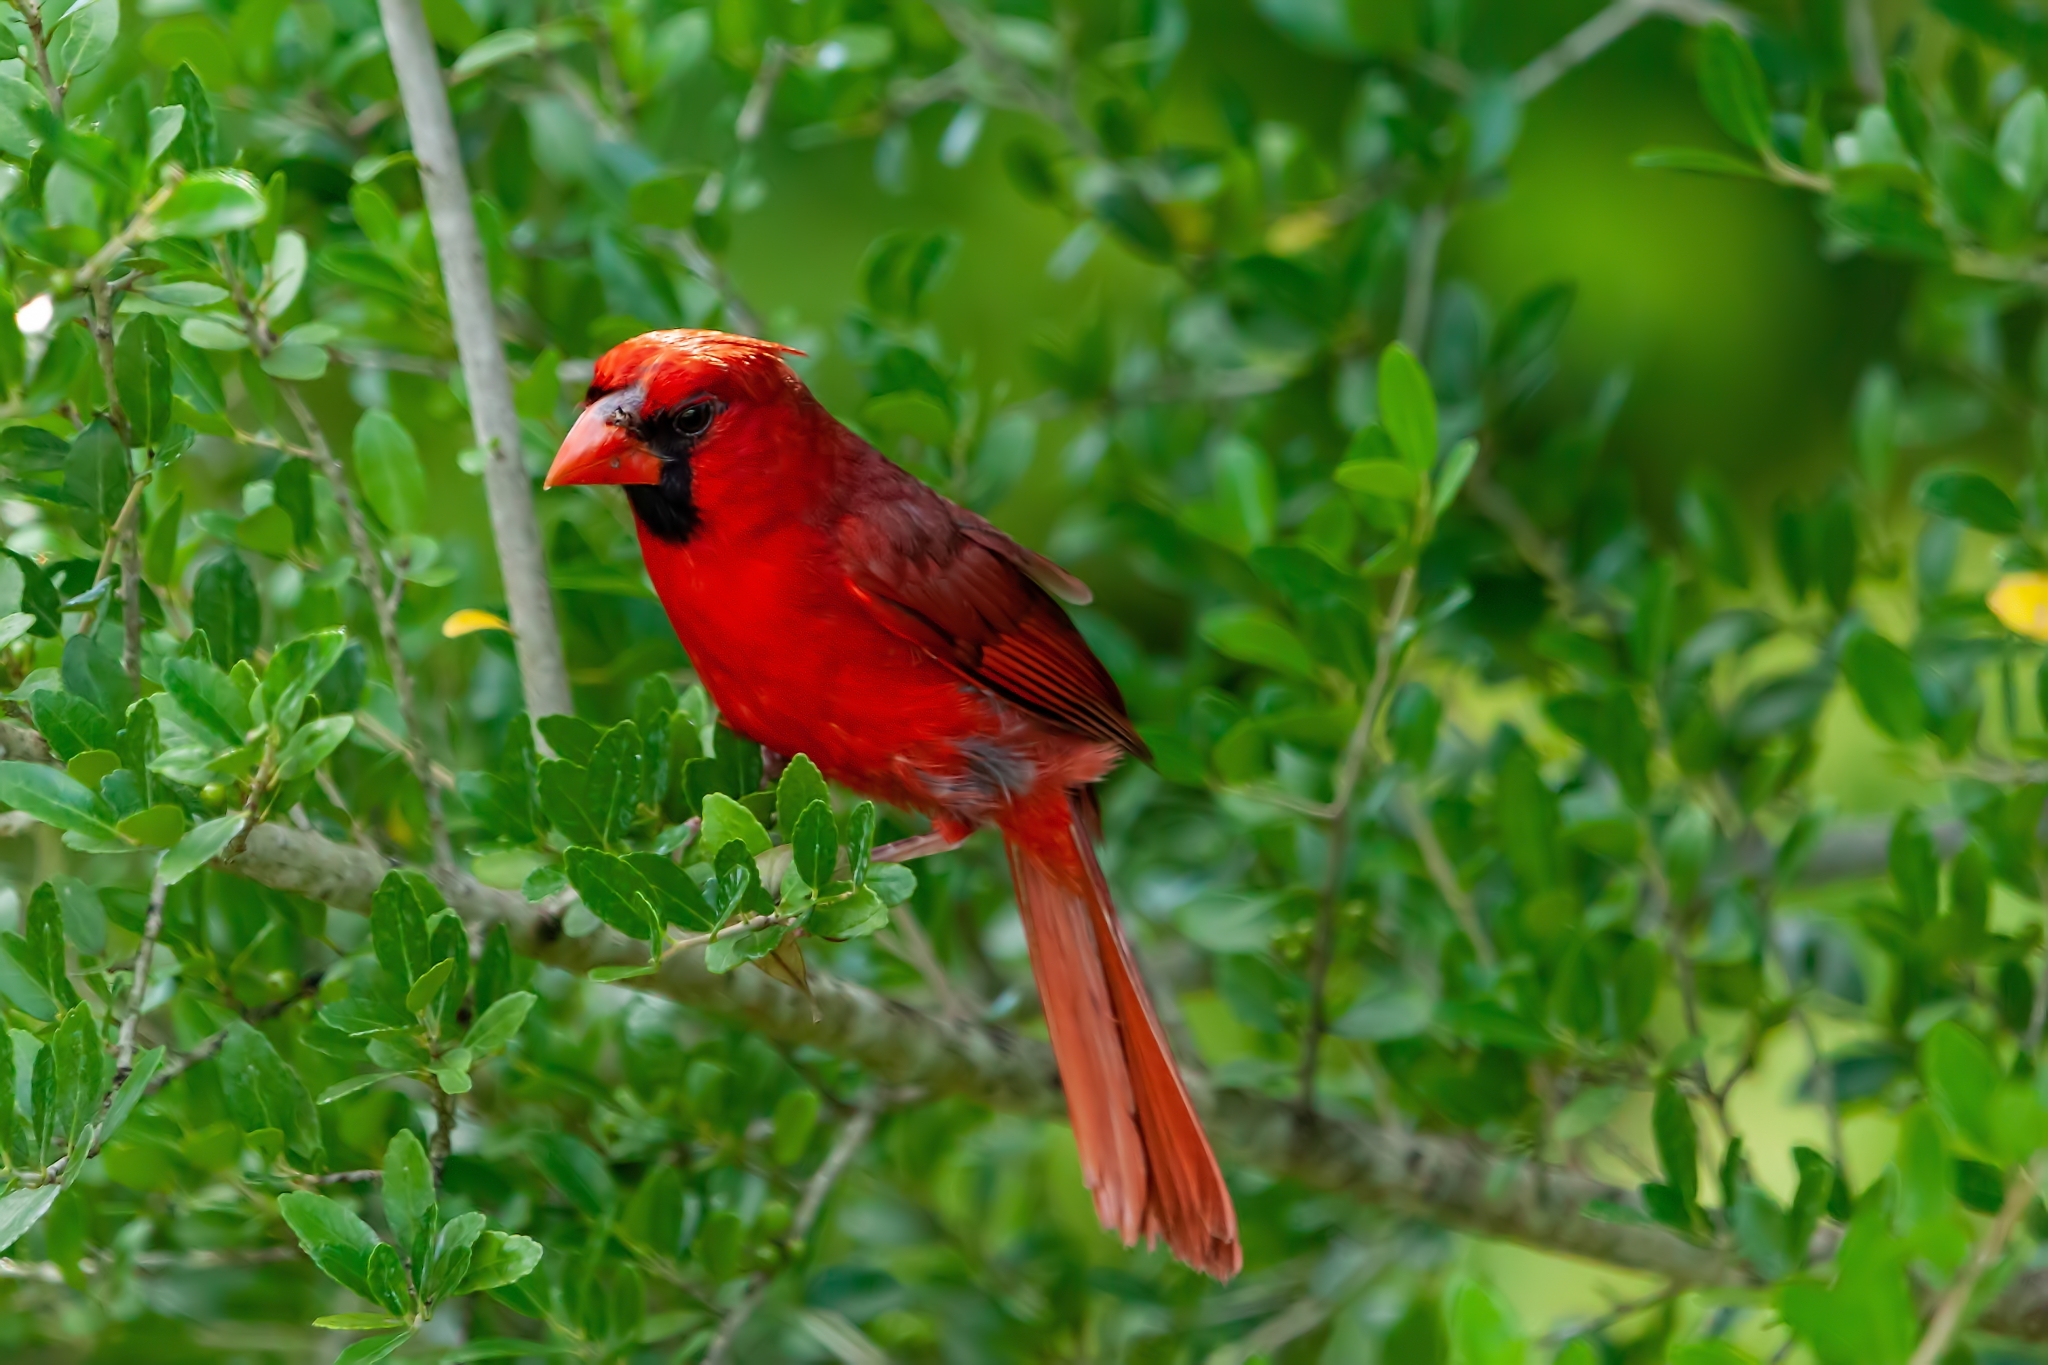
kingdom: Animalia
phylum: Chordata
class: Aves
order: Passeriformes
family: Cardinalidae
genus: Cardinalis
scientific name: Cardinalis cardinalis
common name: Northern cardinal
